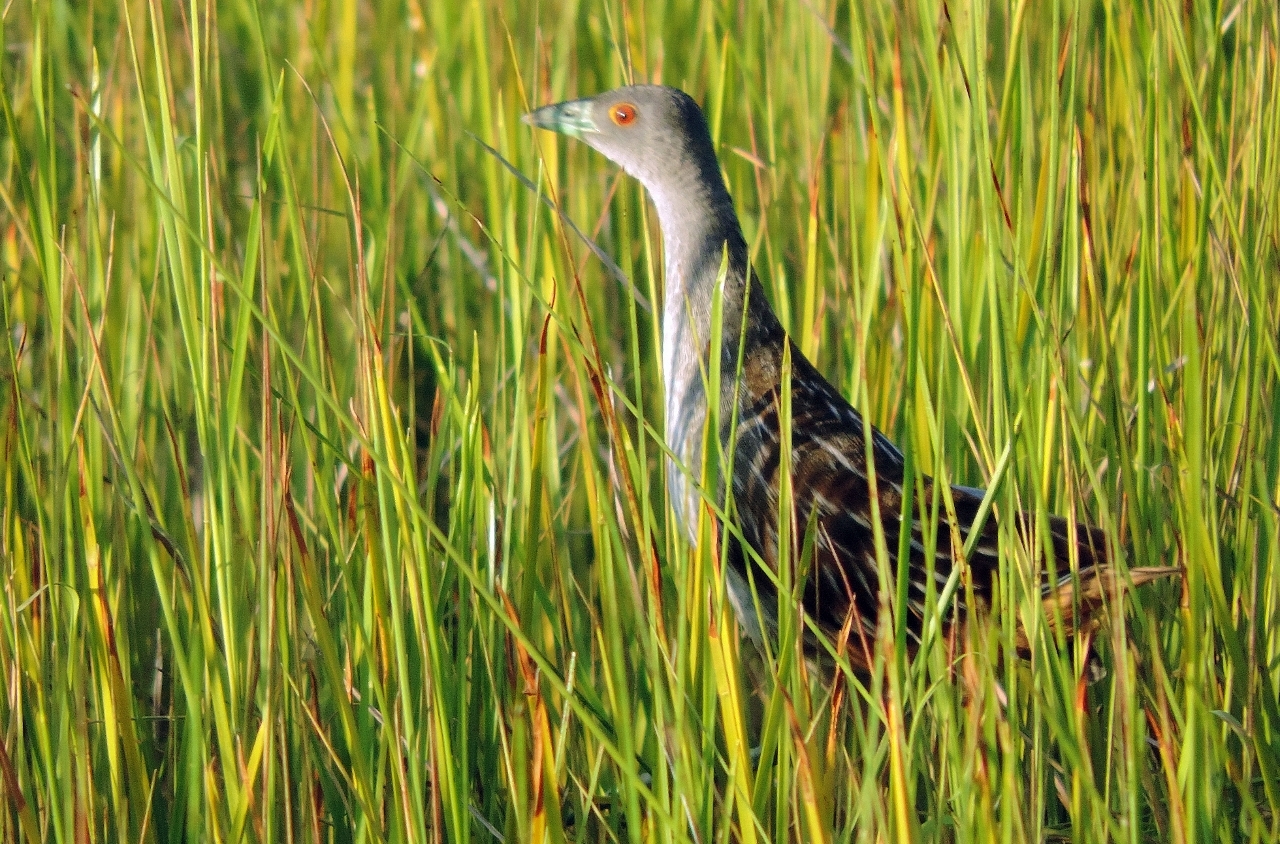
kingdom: Animalia
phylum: Chordata
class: Aves
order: Gruiformes
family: Rallidae
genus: Aenigmatolimnas
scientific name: Aenigmatolimnas marginalis
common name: Striped crake
